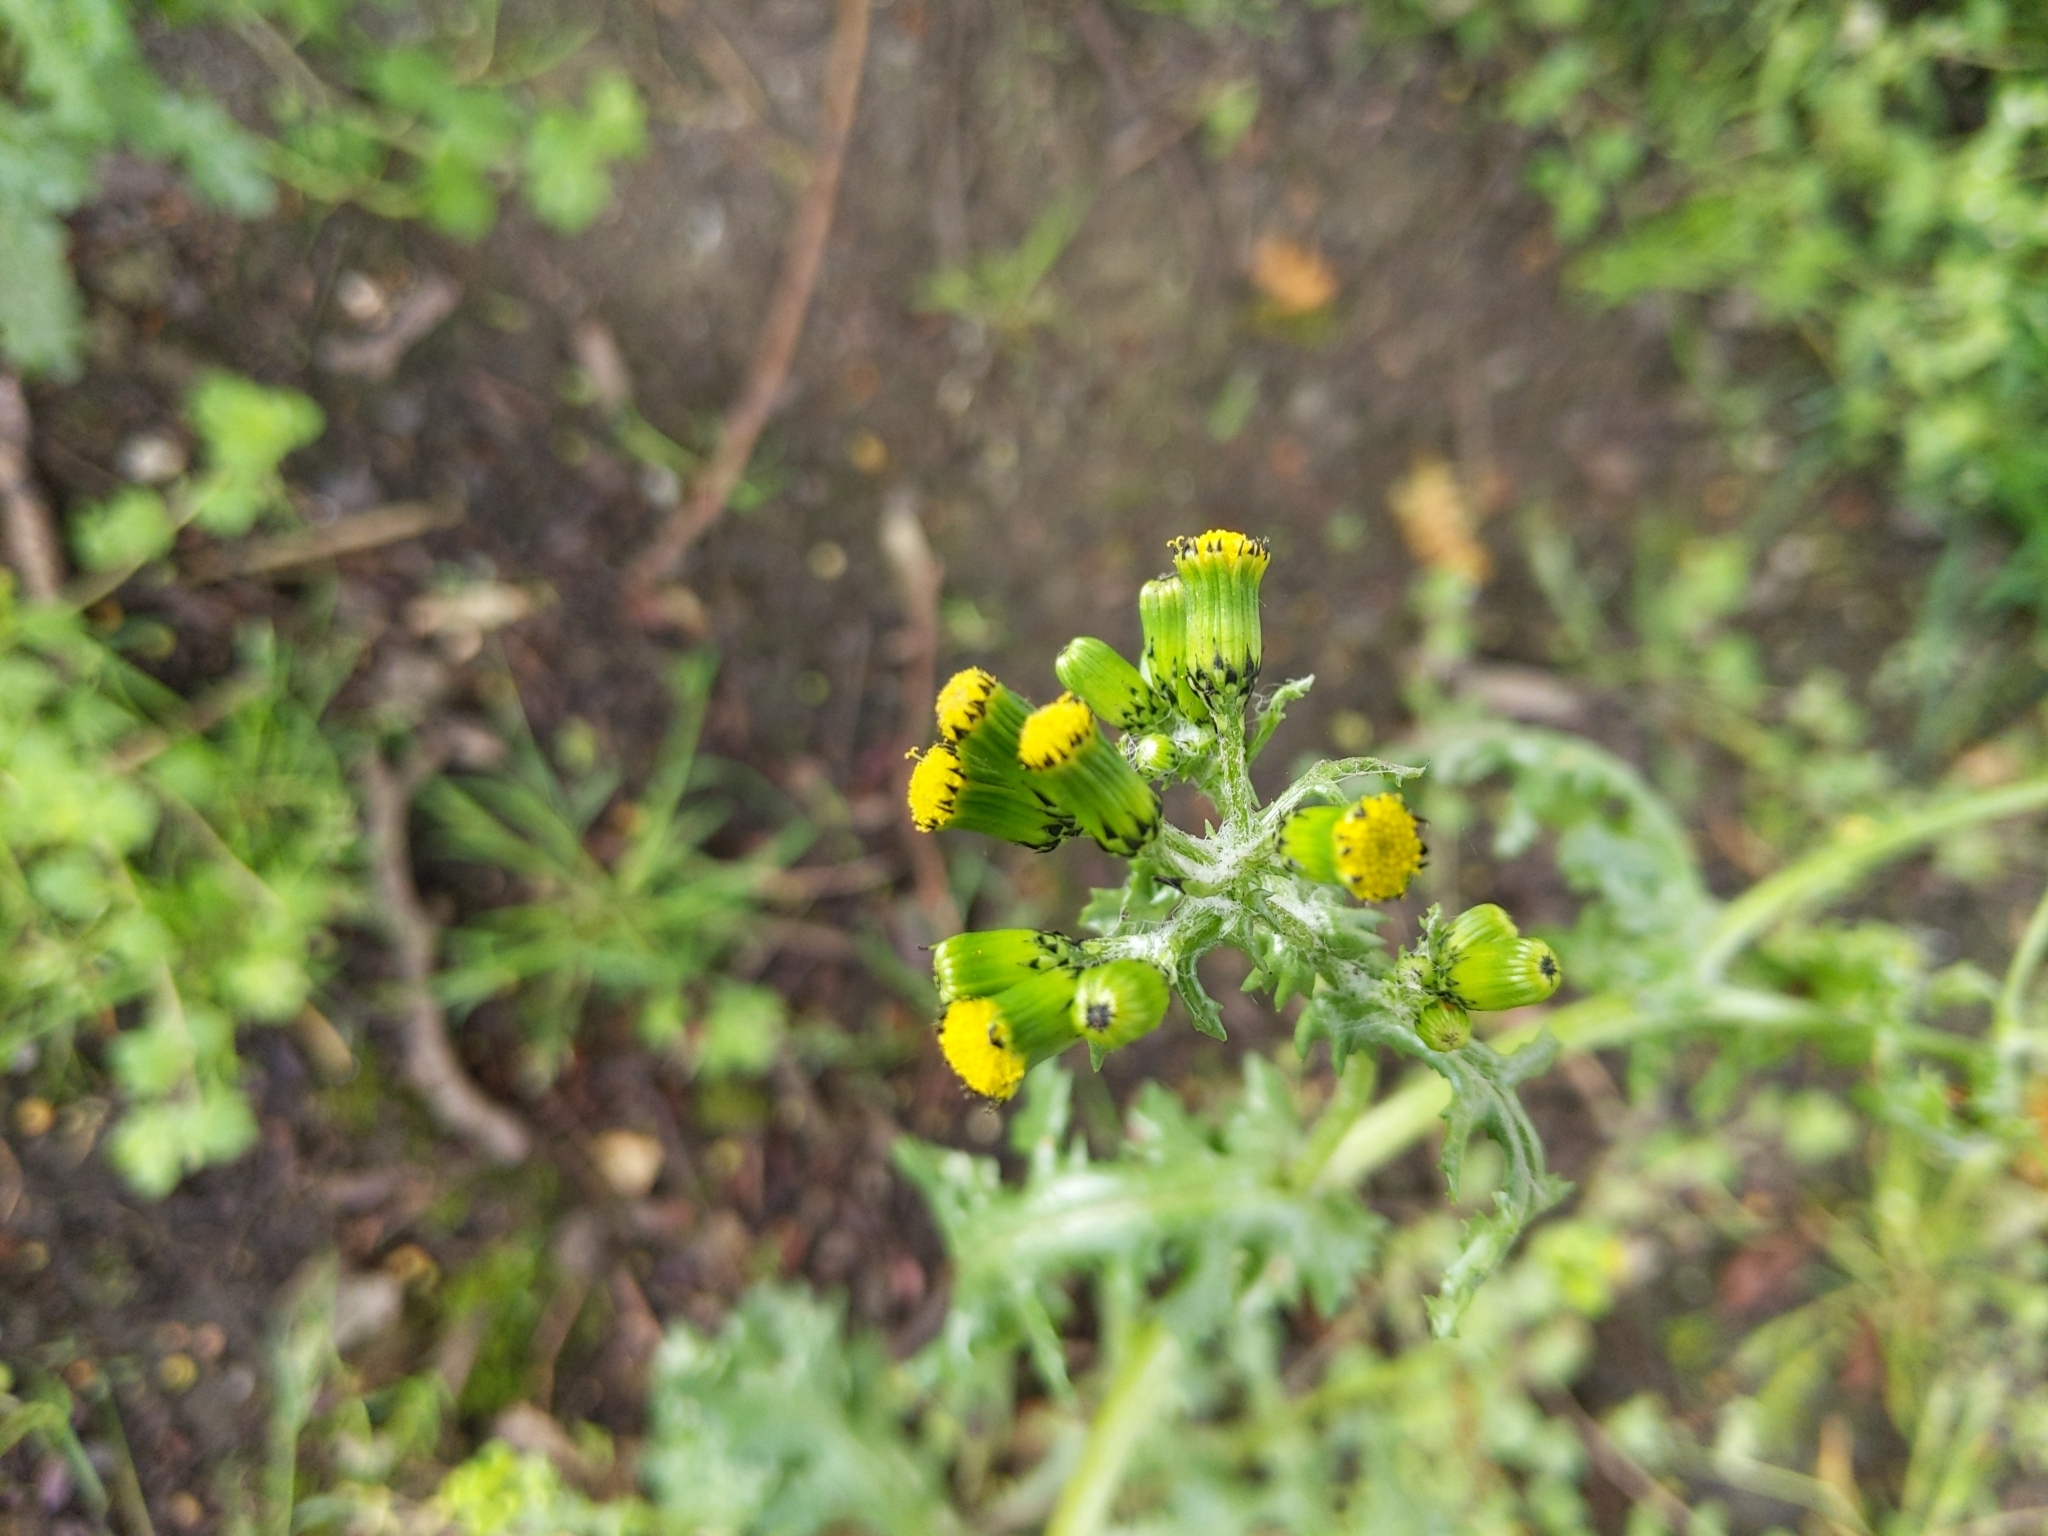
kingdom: Plantae
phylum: Tracheophyta
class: Magnoliopsida
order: Asterales
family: Asteraceae
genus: Senecio
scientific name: Senecio vulgaris
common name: Old-man-in-the-spring
